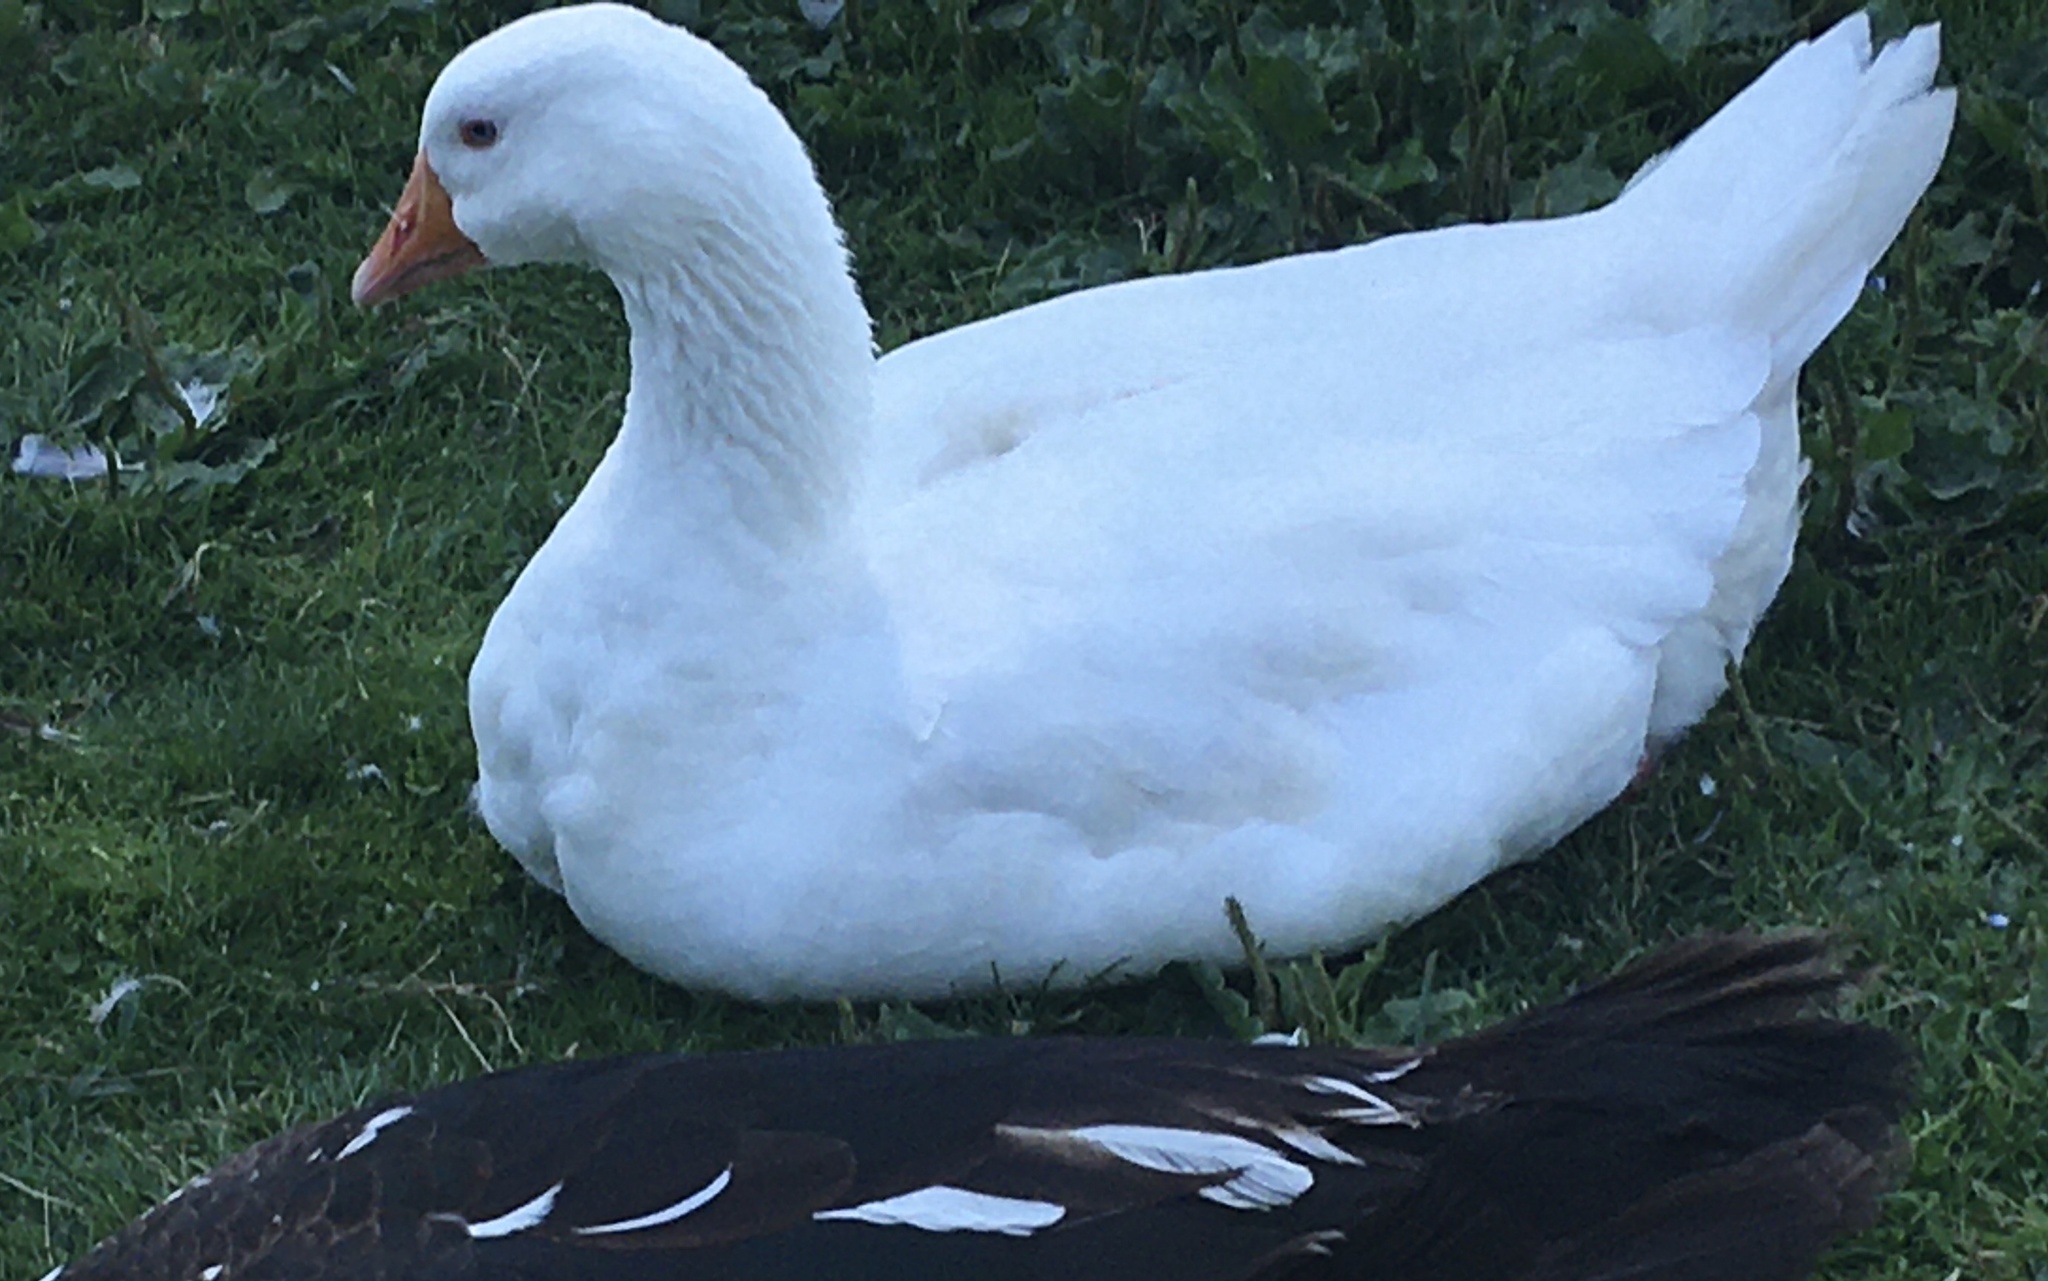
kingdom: Animalia
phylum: Chordata
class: Aves
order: Anseriformes
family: Anatidae
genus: Anser
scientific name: Anser anser
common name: Greylag goose
